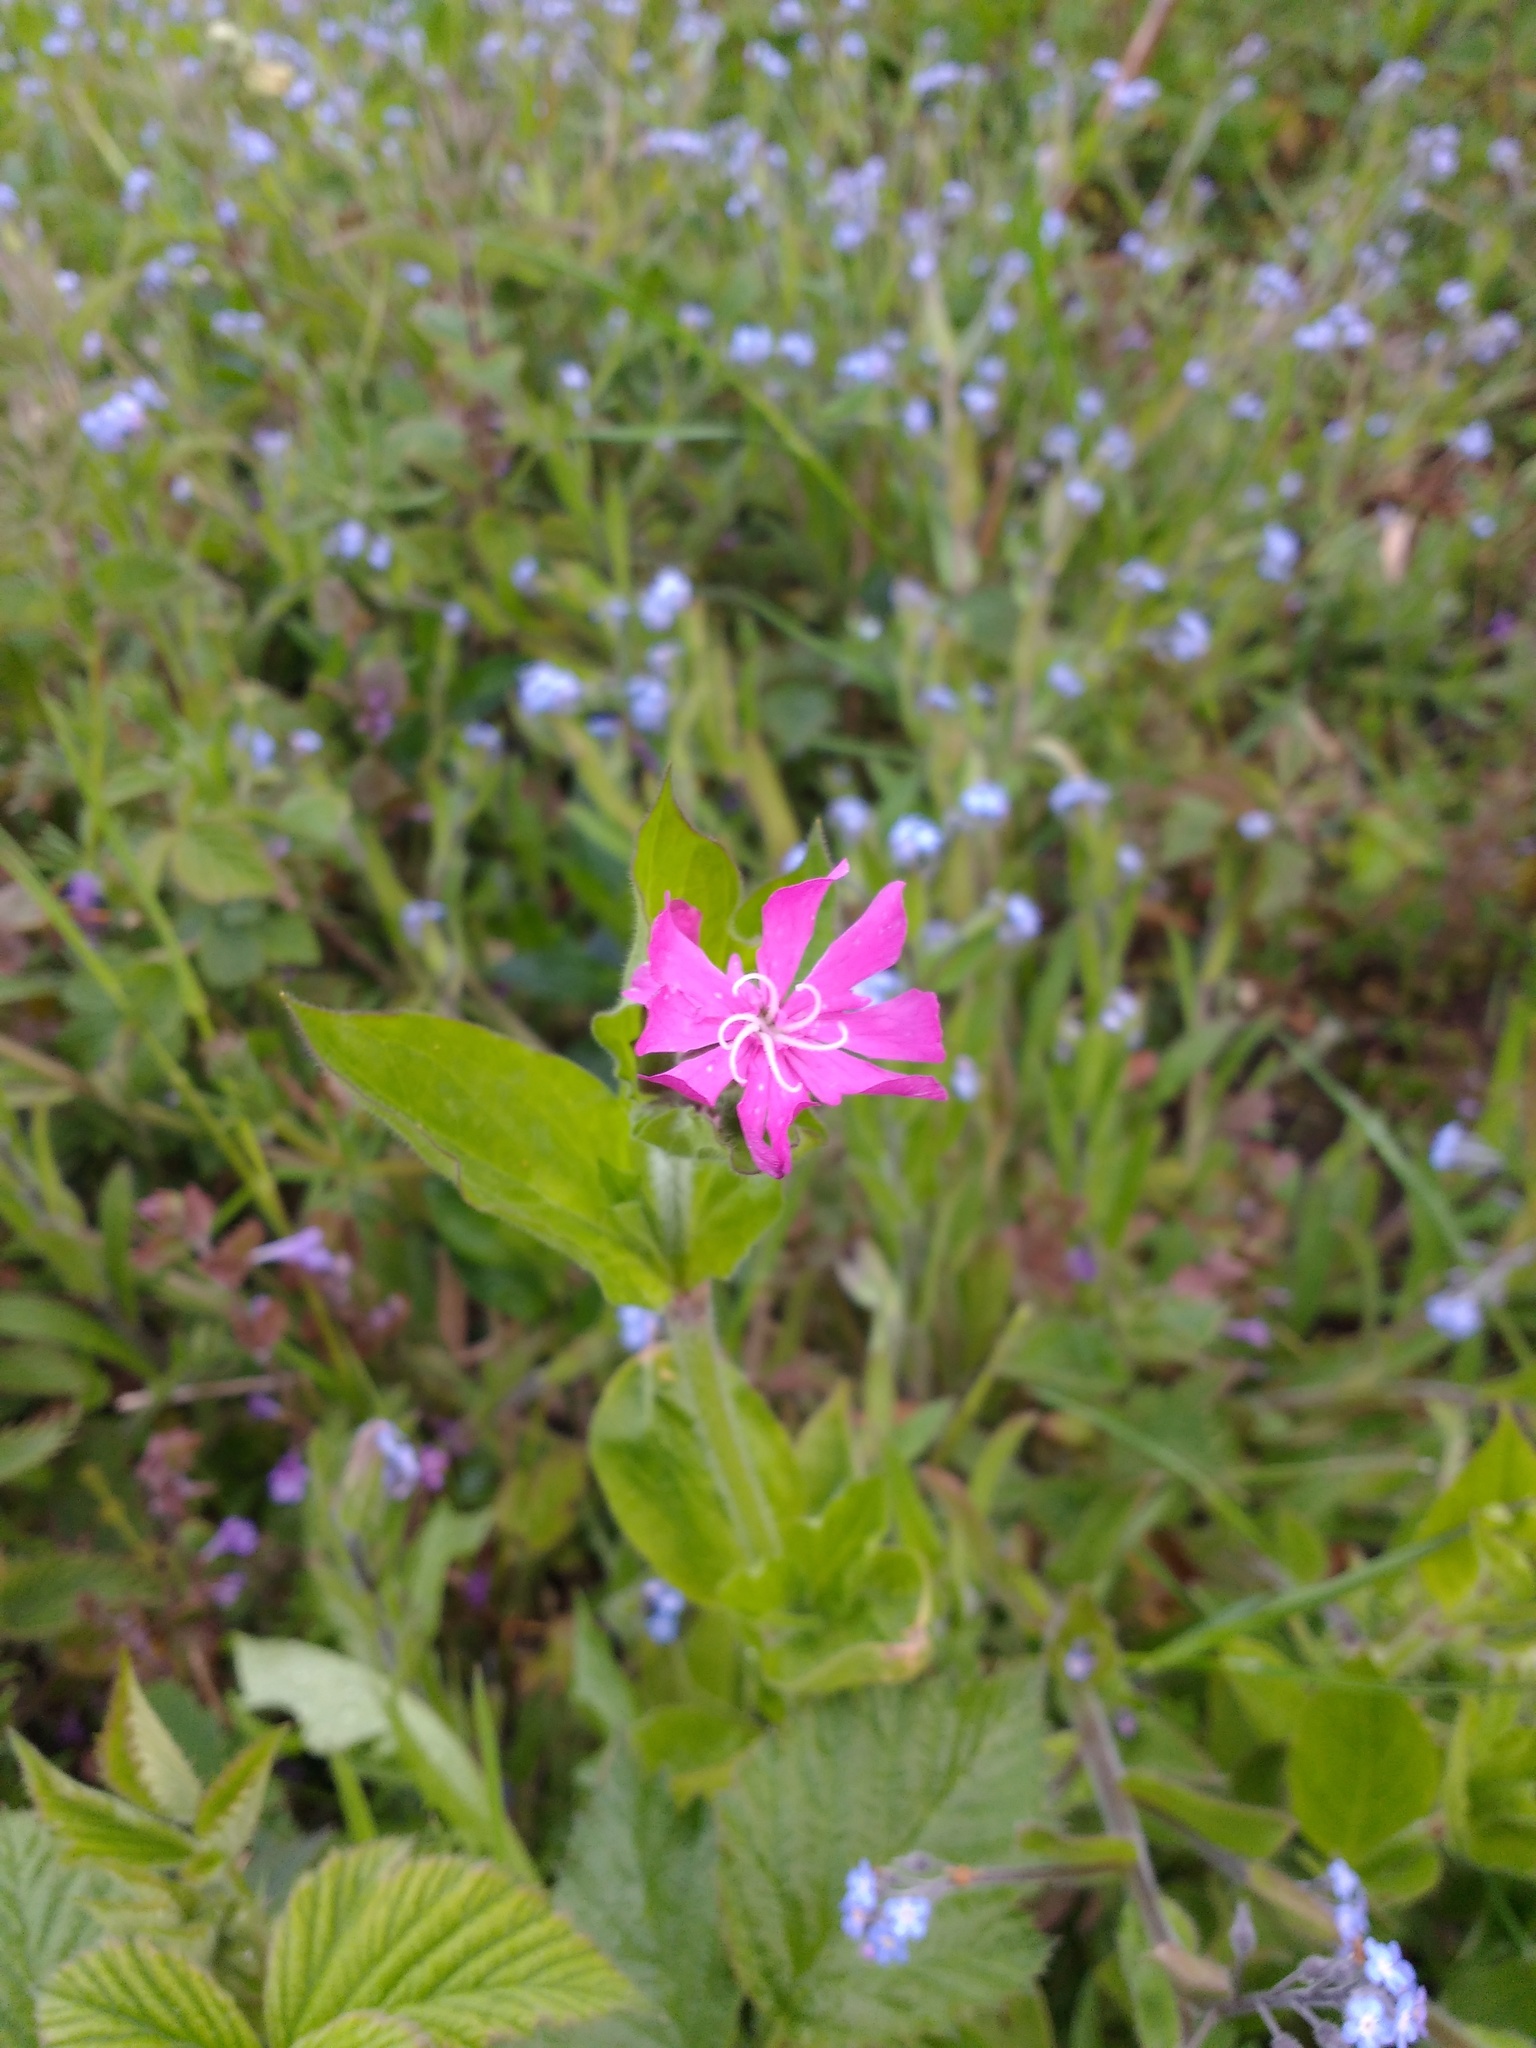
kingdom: Plantae
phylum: Tracheophyta
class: Magnoliopsida
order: Caryophyllales
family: Caryophyllaceae
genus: Silene
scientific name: Silene dioica
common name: Red campion
